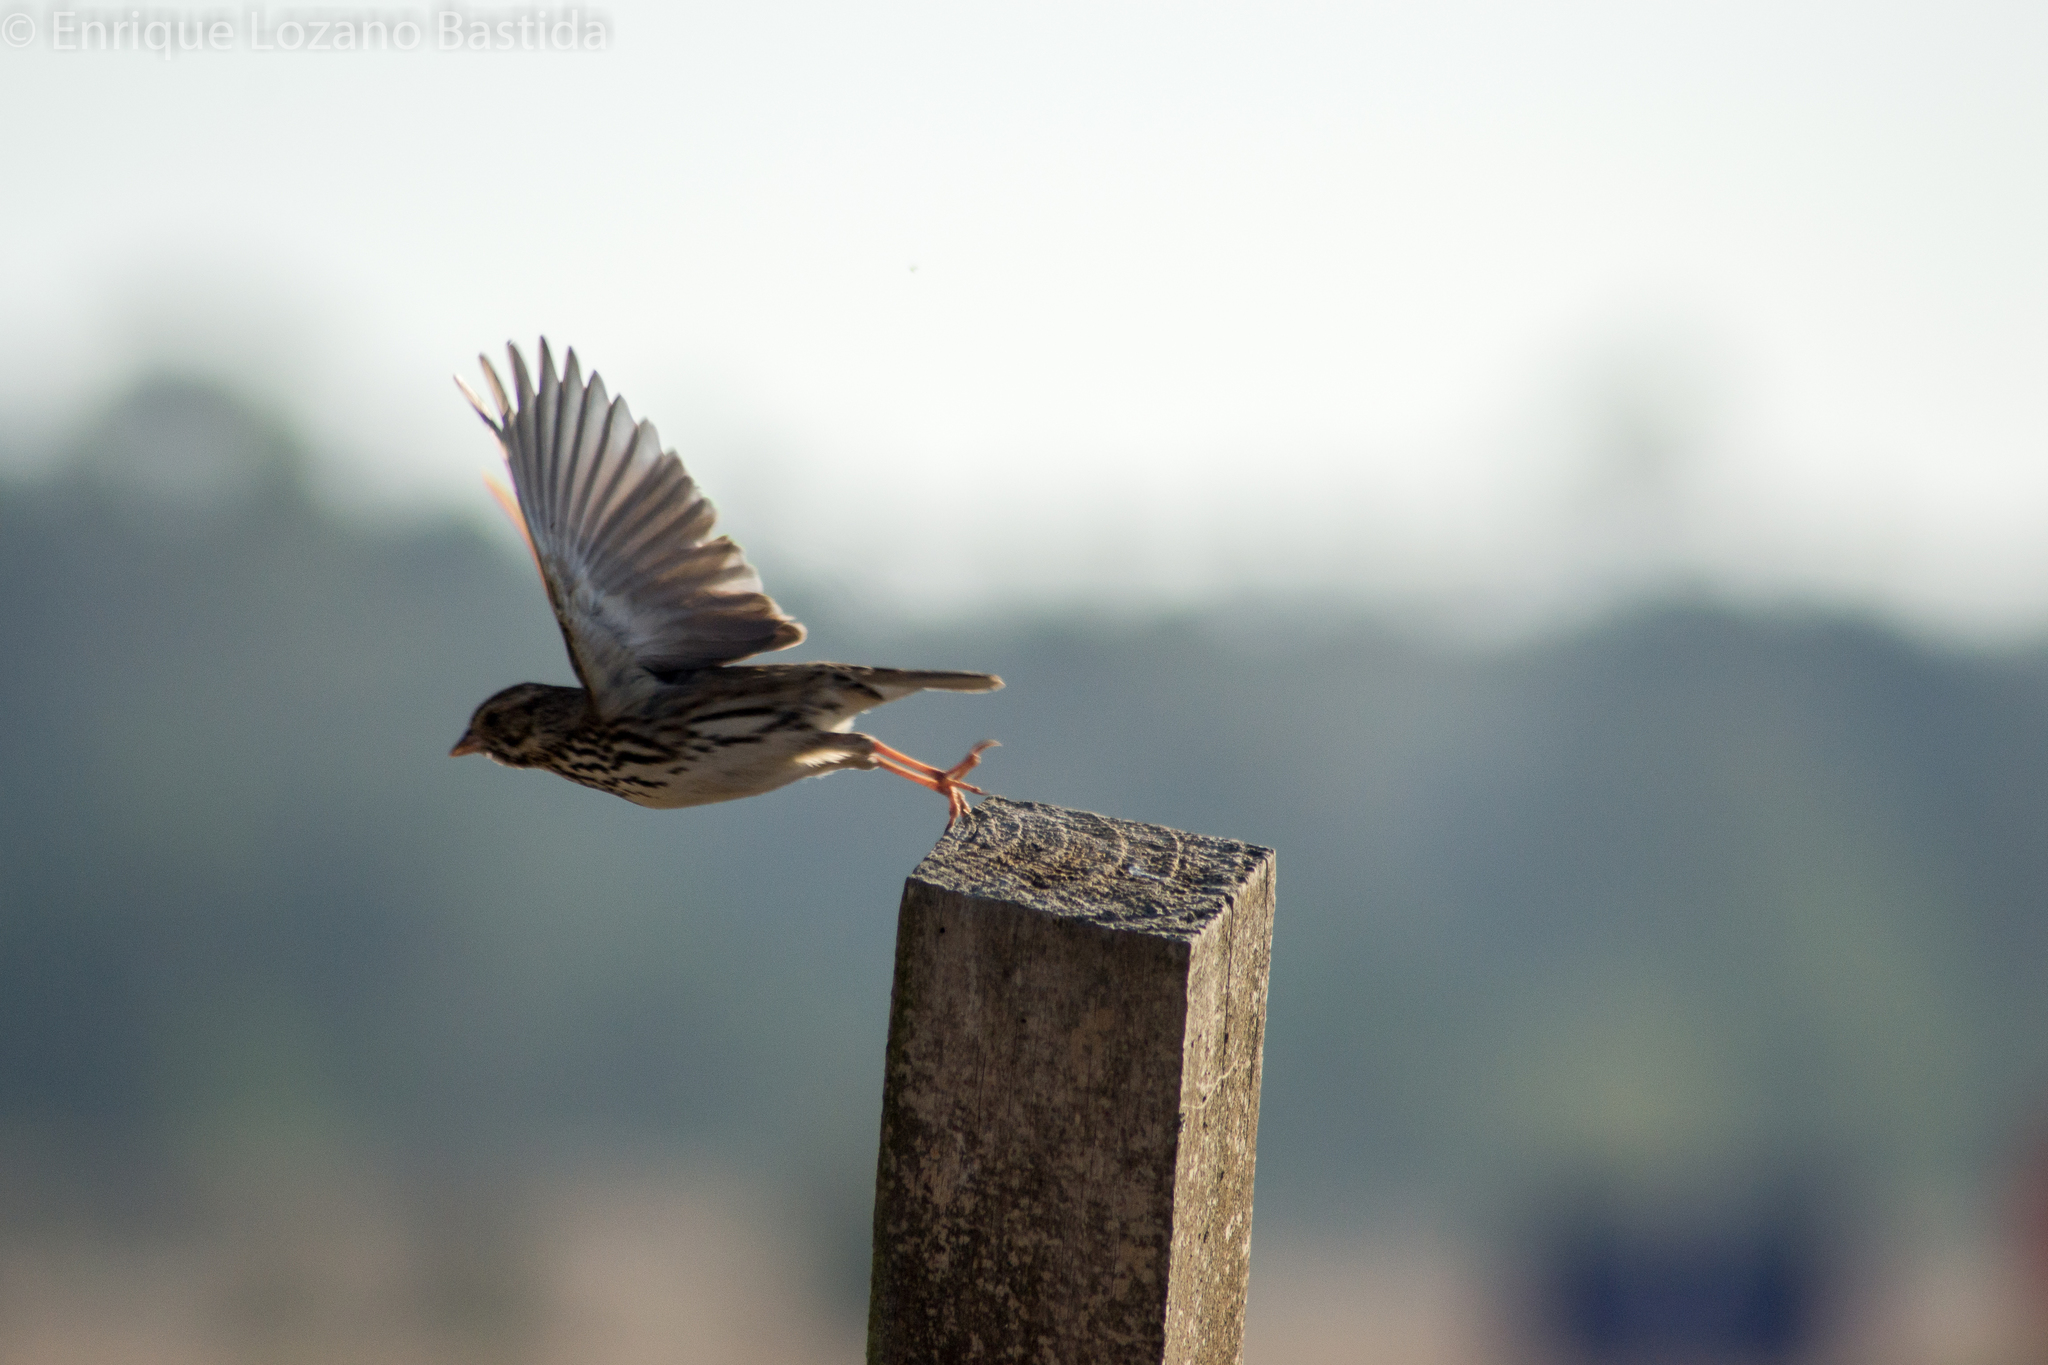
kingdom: Animalia
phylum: Chordata
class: Aves
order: Passeriformes
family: Passerellidae
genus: Passerculus
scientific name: Passerculus sandwichensis
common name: Savannah sparrow
